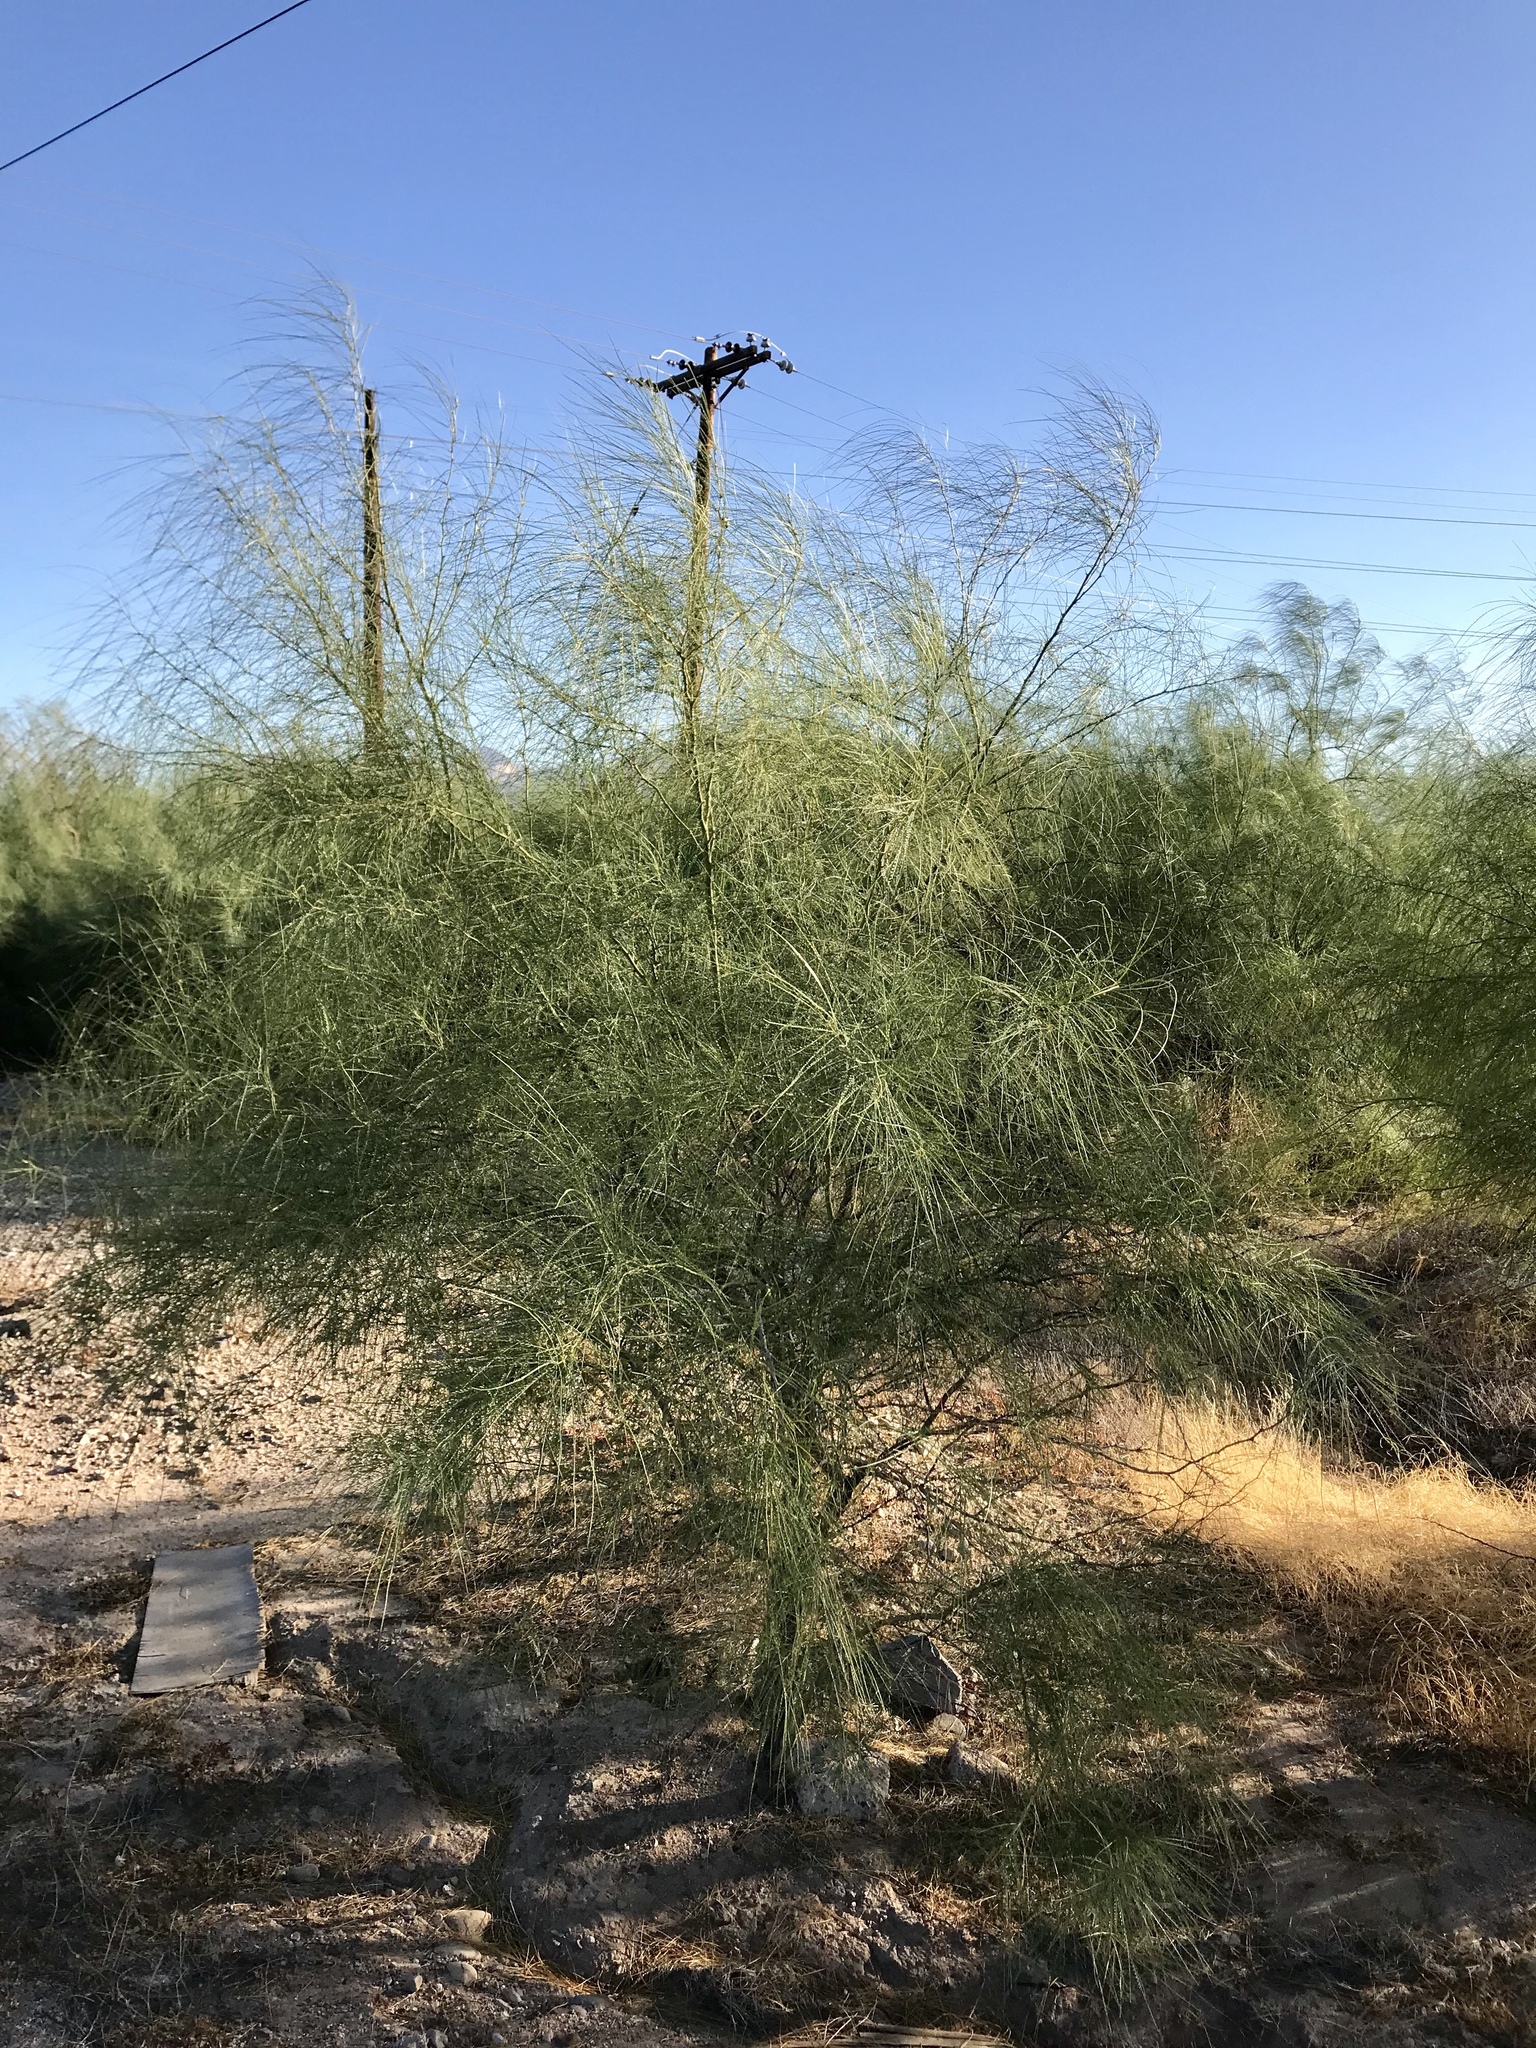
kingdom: Plantae
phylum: Tracheophyta
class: Magnoliopsida
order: Fabales
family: Fabaceae
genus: Parkinsonia
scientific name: Parkinsonia aculeata
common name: Jerusalem thorn
